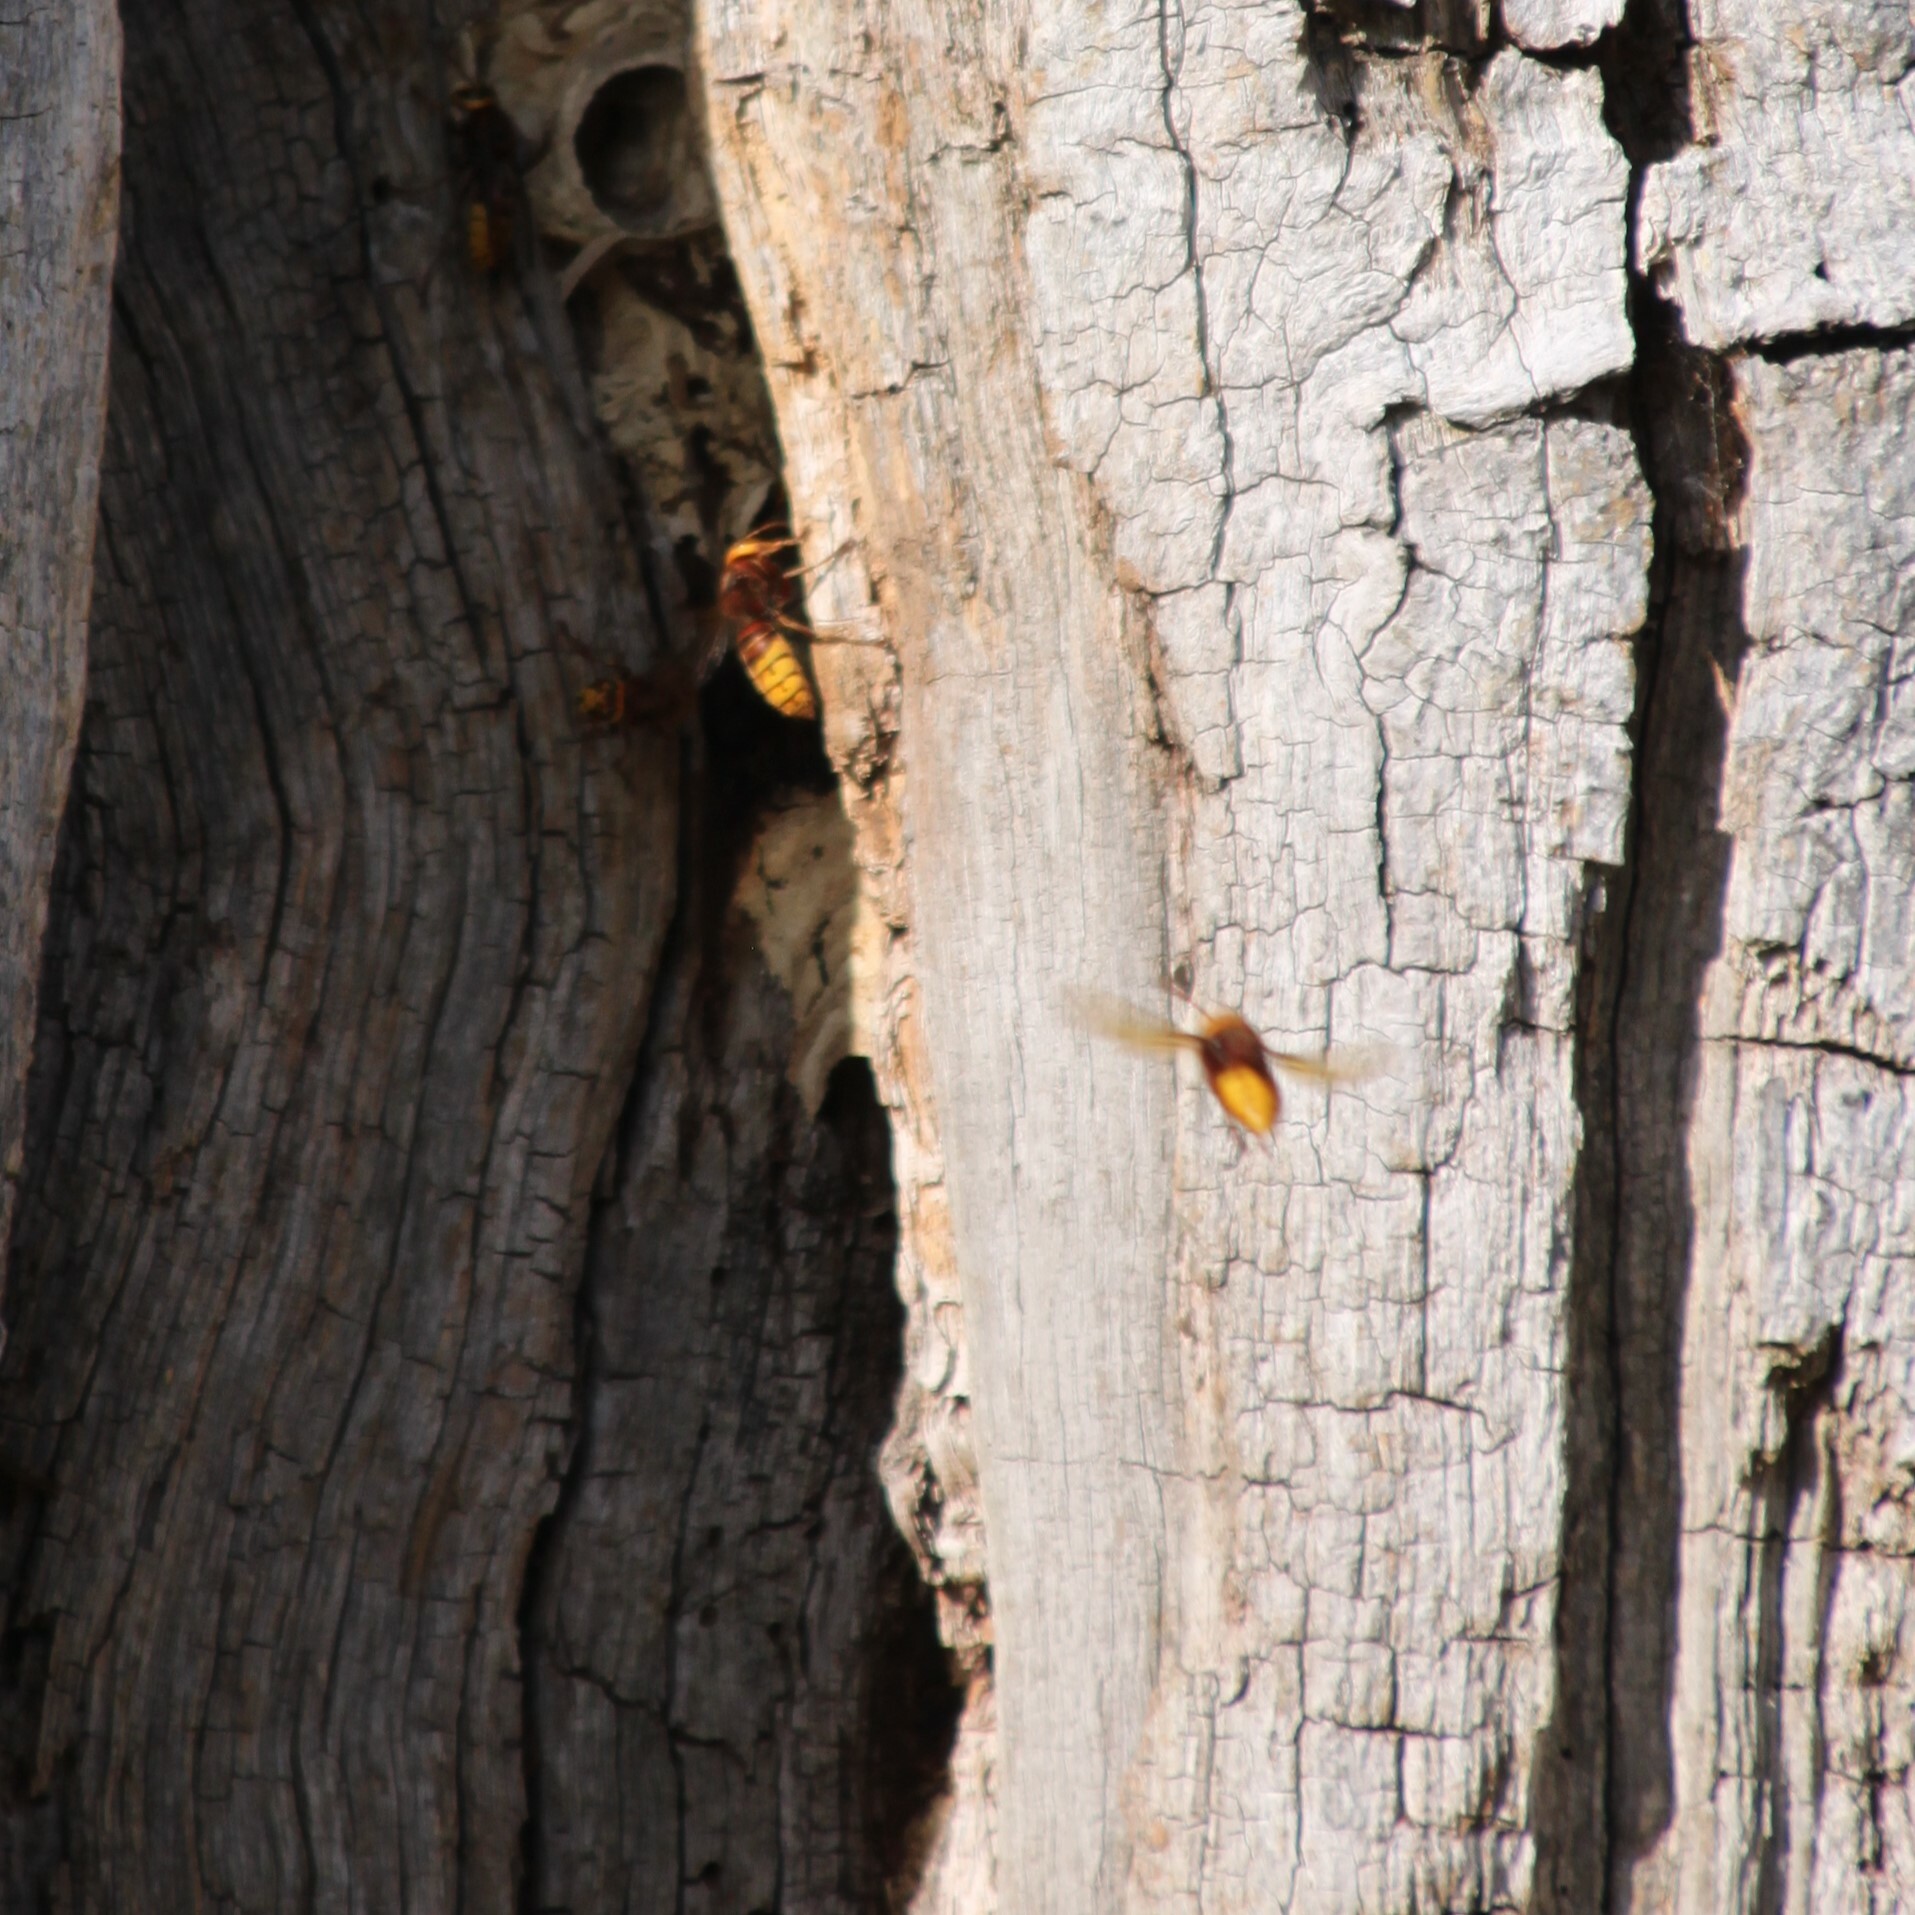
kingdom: Animalia
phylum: Arthropoda
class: Insecta
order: Hymenoptera
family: Vespidae
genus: Vespa
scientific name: Vespa crabro
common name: Hornet
